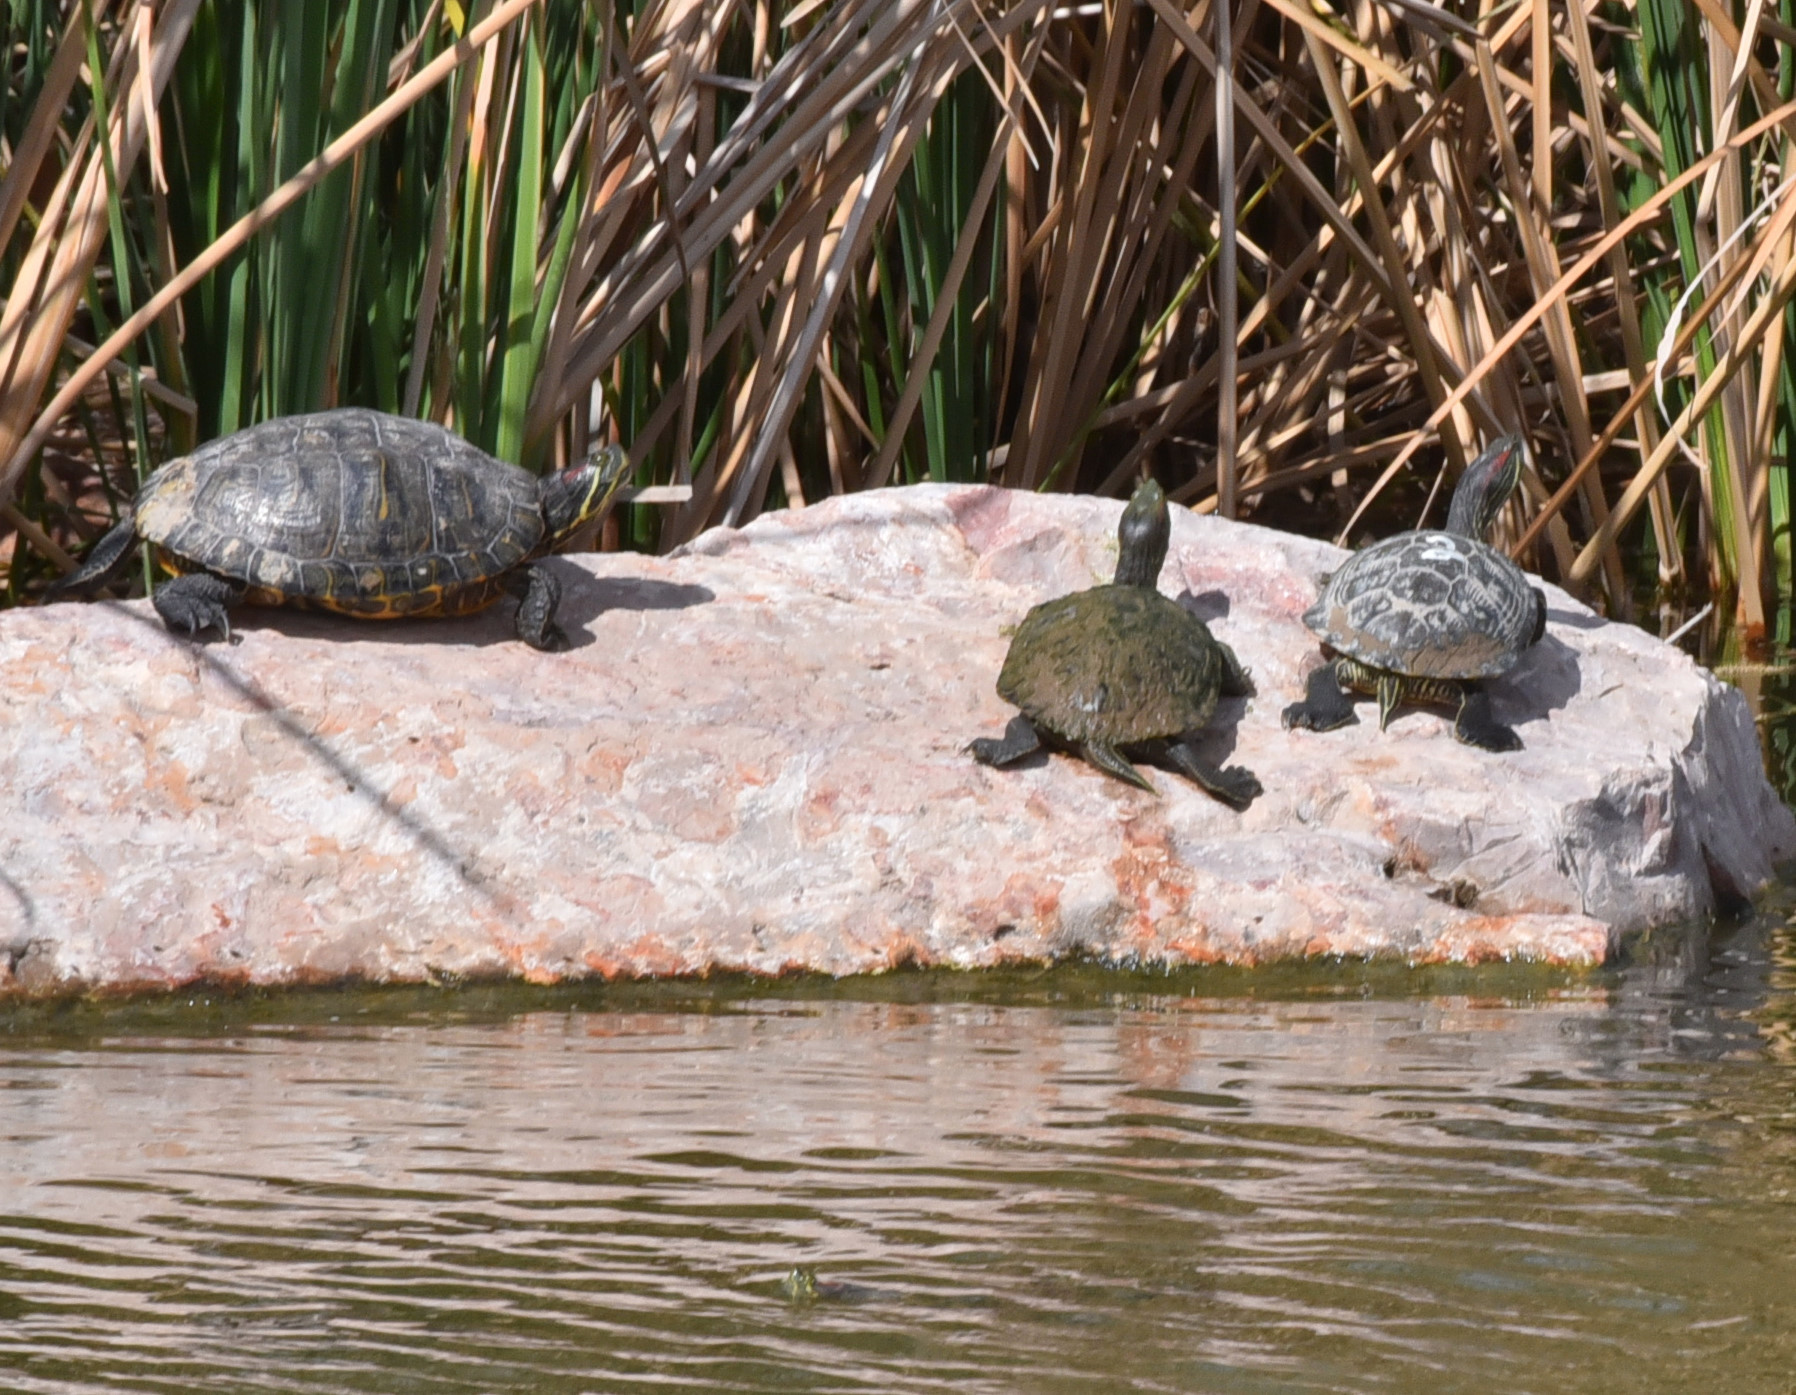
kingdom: Animalia
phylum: Chordata
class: Testudines
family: Emydidae
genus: Trachemys
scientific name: Trachemys scripta
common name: Slider
